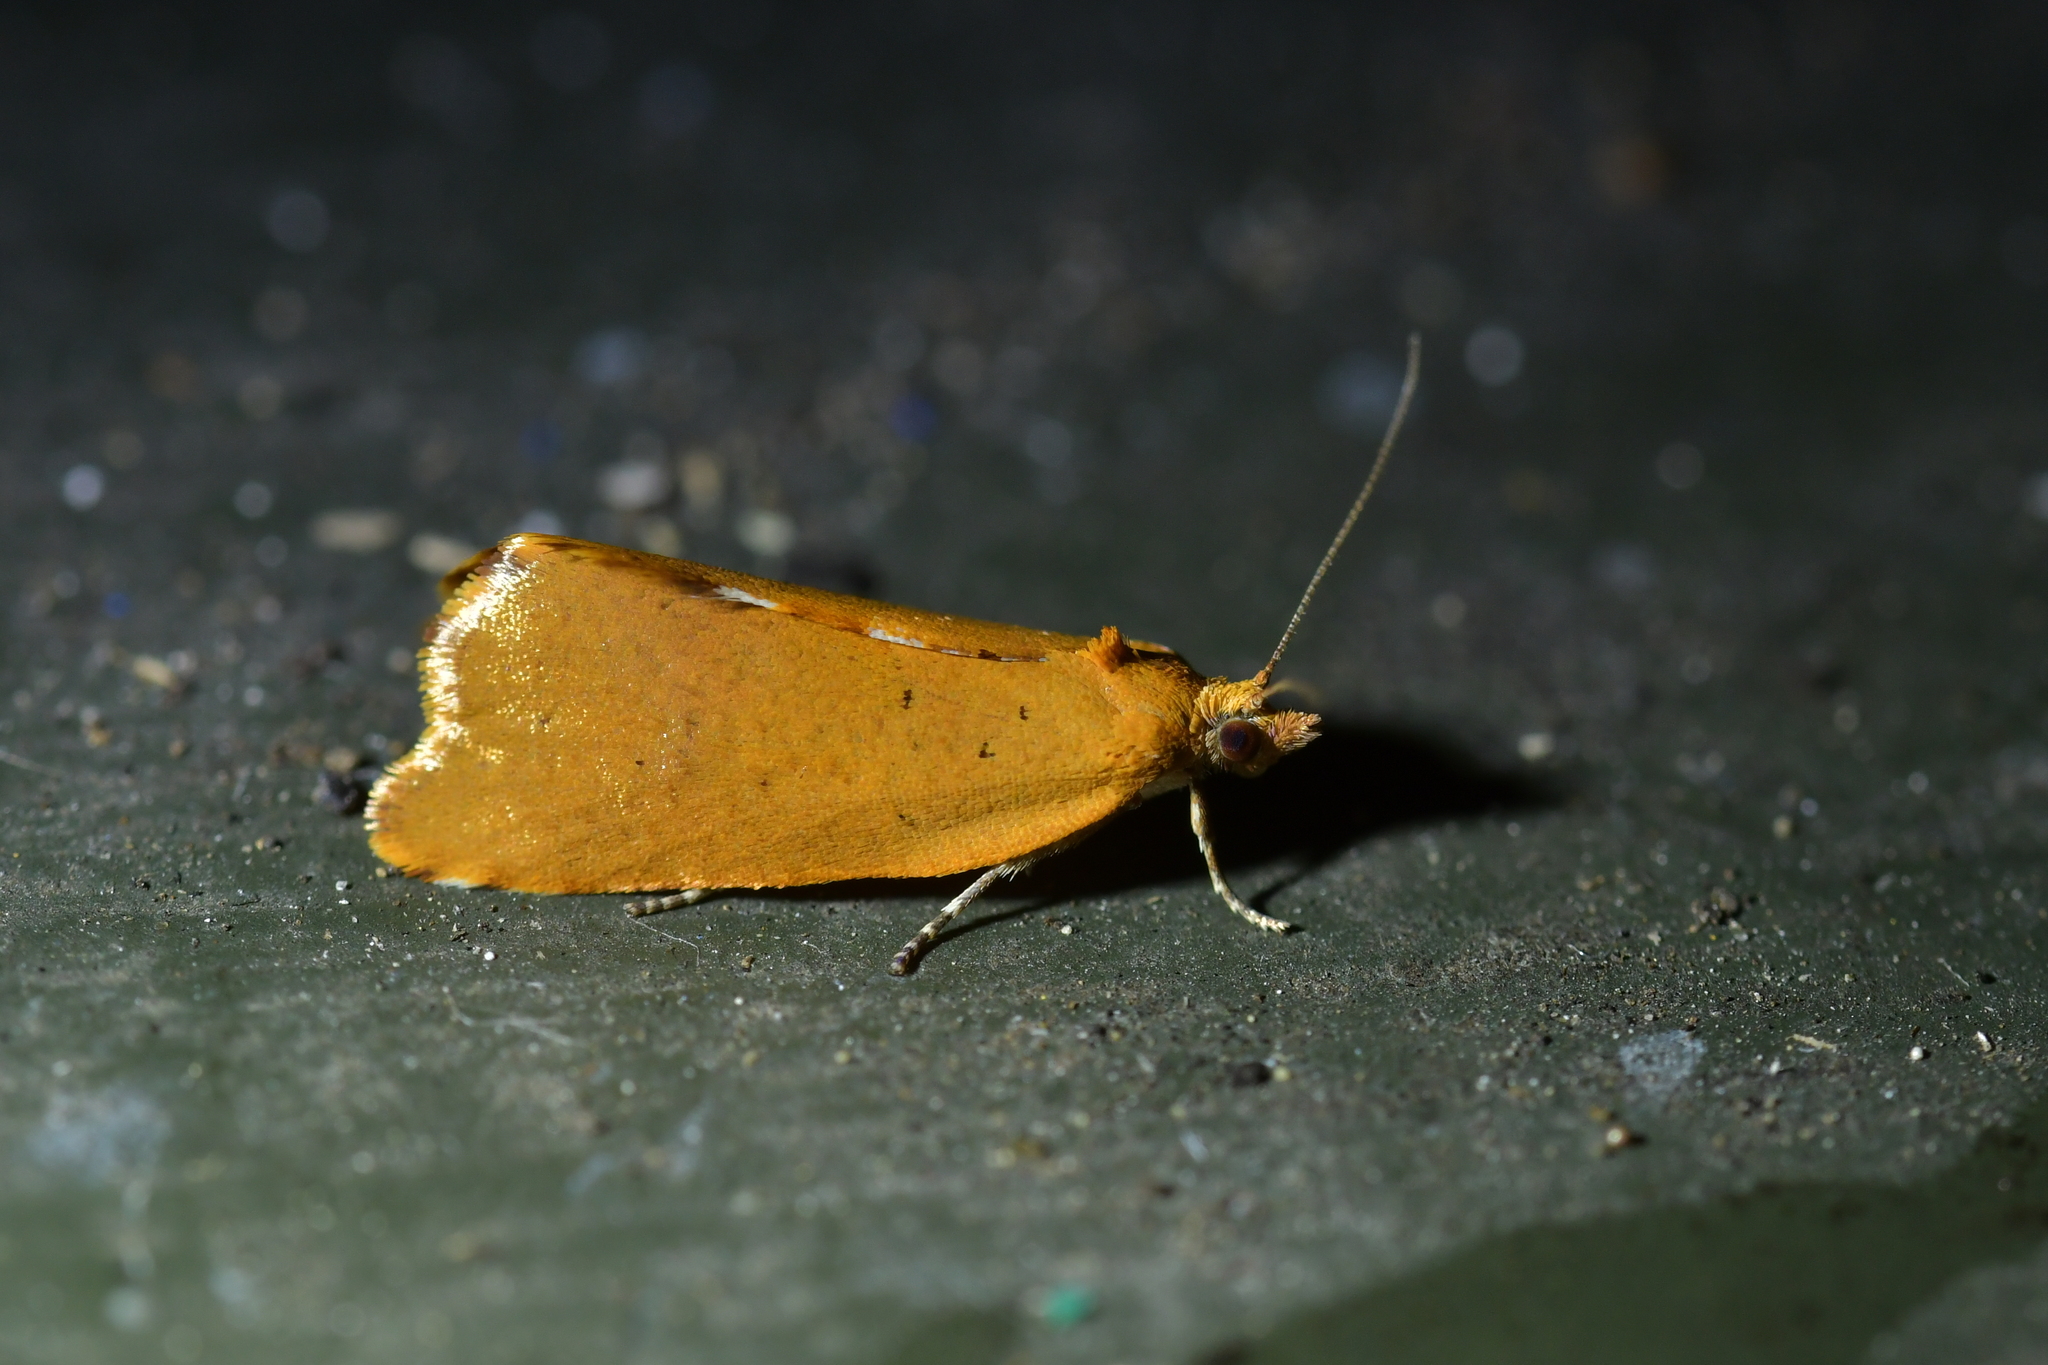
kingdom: Animalia
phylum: Arthropoda
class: Insecta
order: Lepidoptera
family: Tortricidae
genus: Pyrgotis
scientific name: Pyrgotis pyramidias
